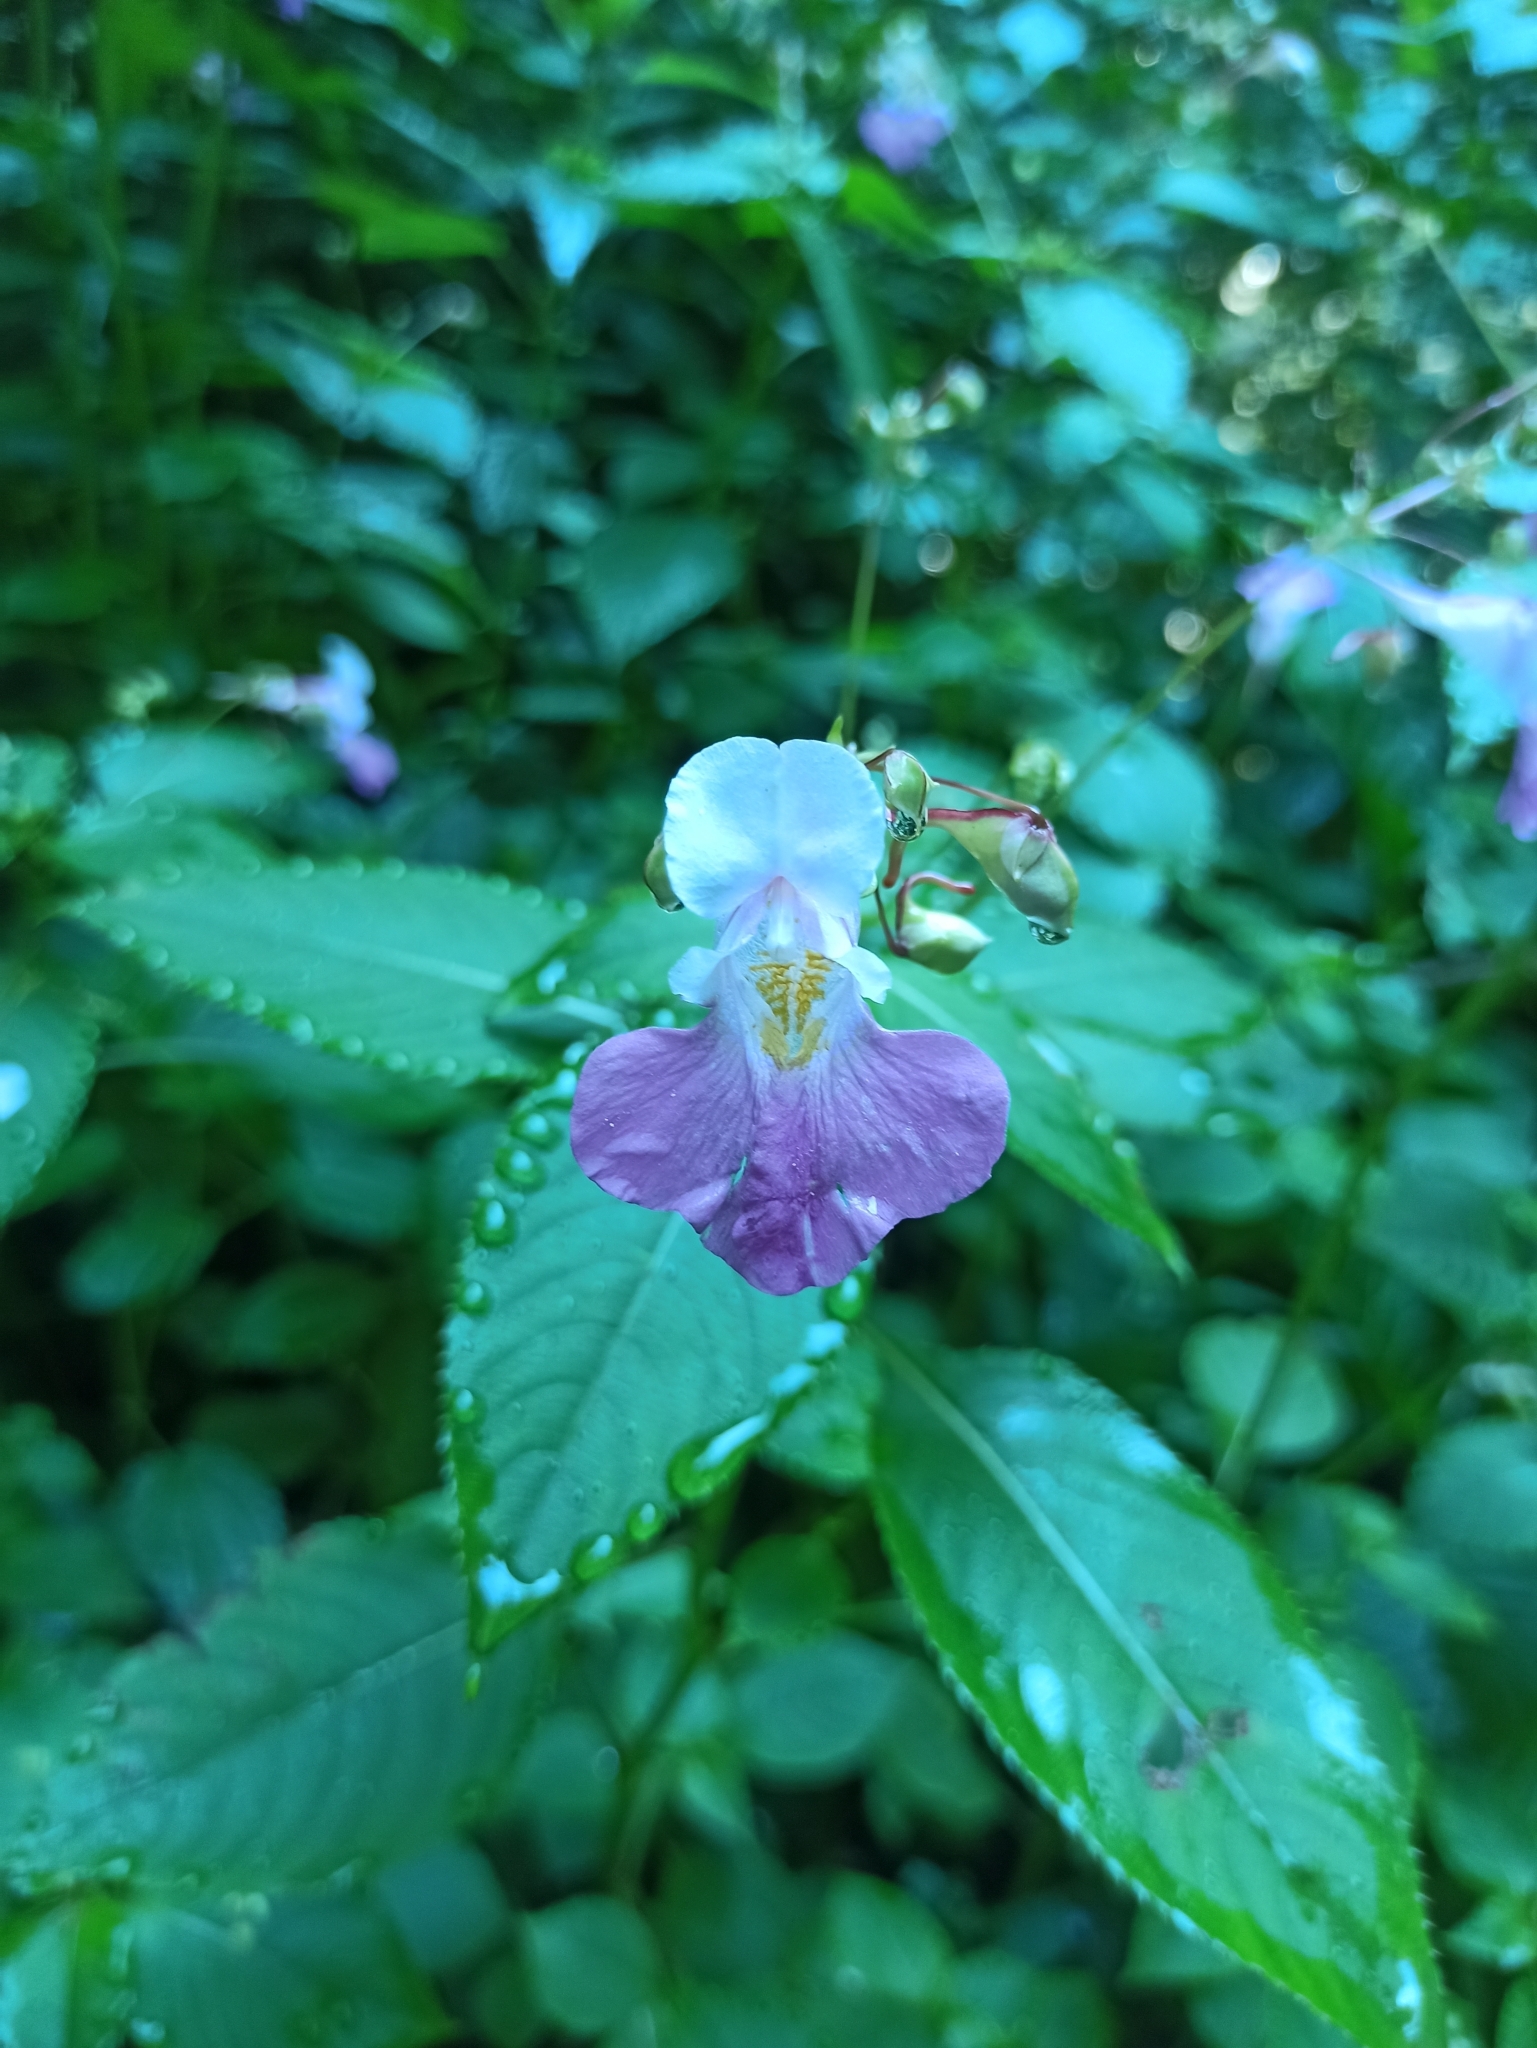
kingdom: Plantae
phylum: Tracheophyta
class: Magnoliopsida
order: Ericales
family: Balsaminaceae
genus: Impatiens
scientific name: Impatiens balfourii
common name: Balfour's touch-me-not
